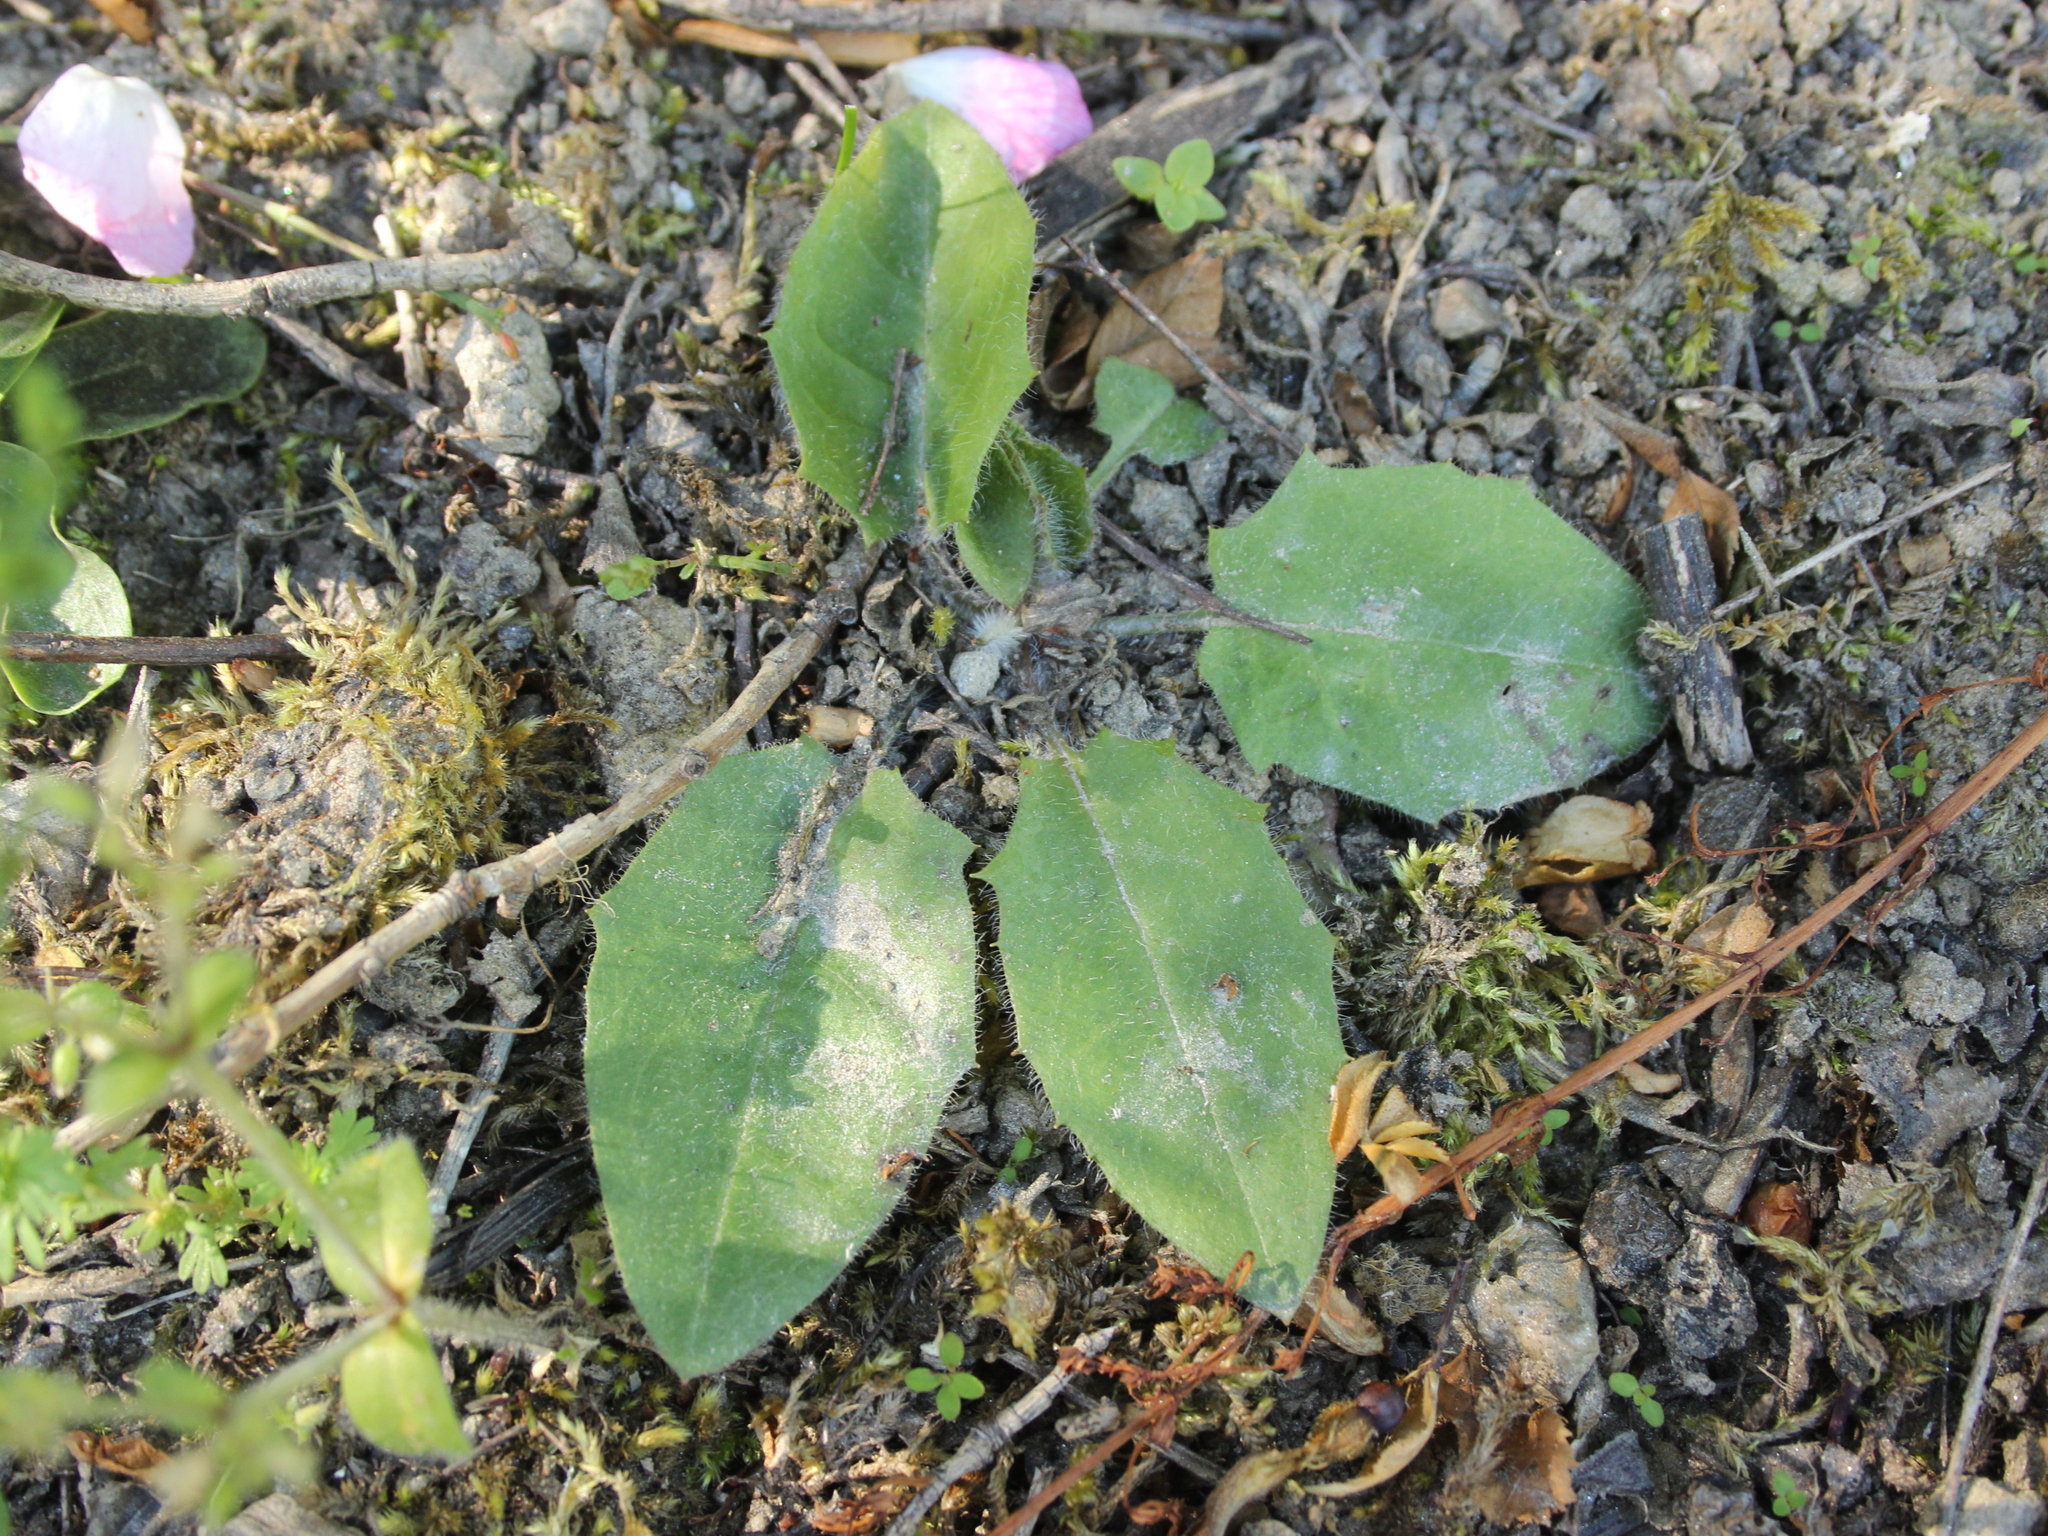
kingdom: Plantae
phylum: Tracheophyta
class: Magnoliopsida
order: Asterales
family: Asteraceae
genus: Hieracium
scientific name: Hieracium lepidulum
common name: Irregular-toothed hawkweed
